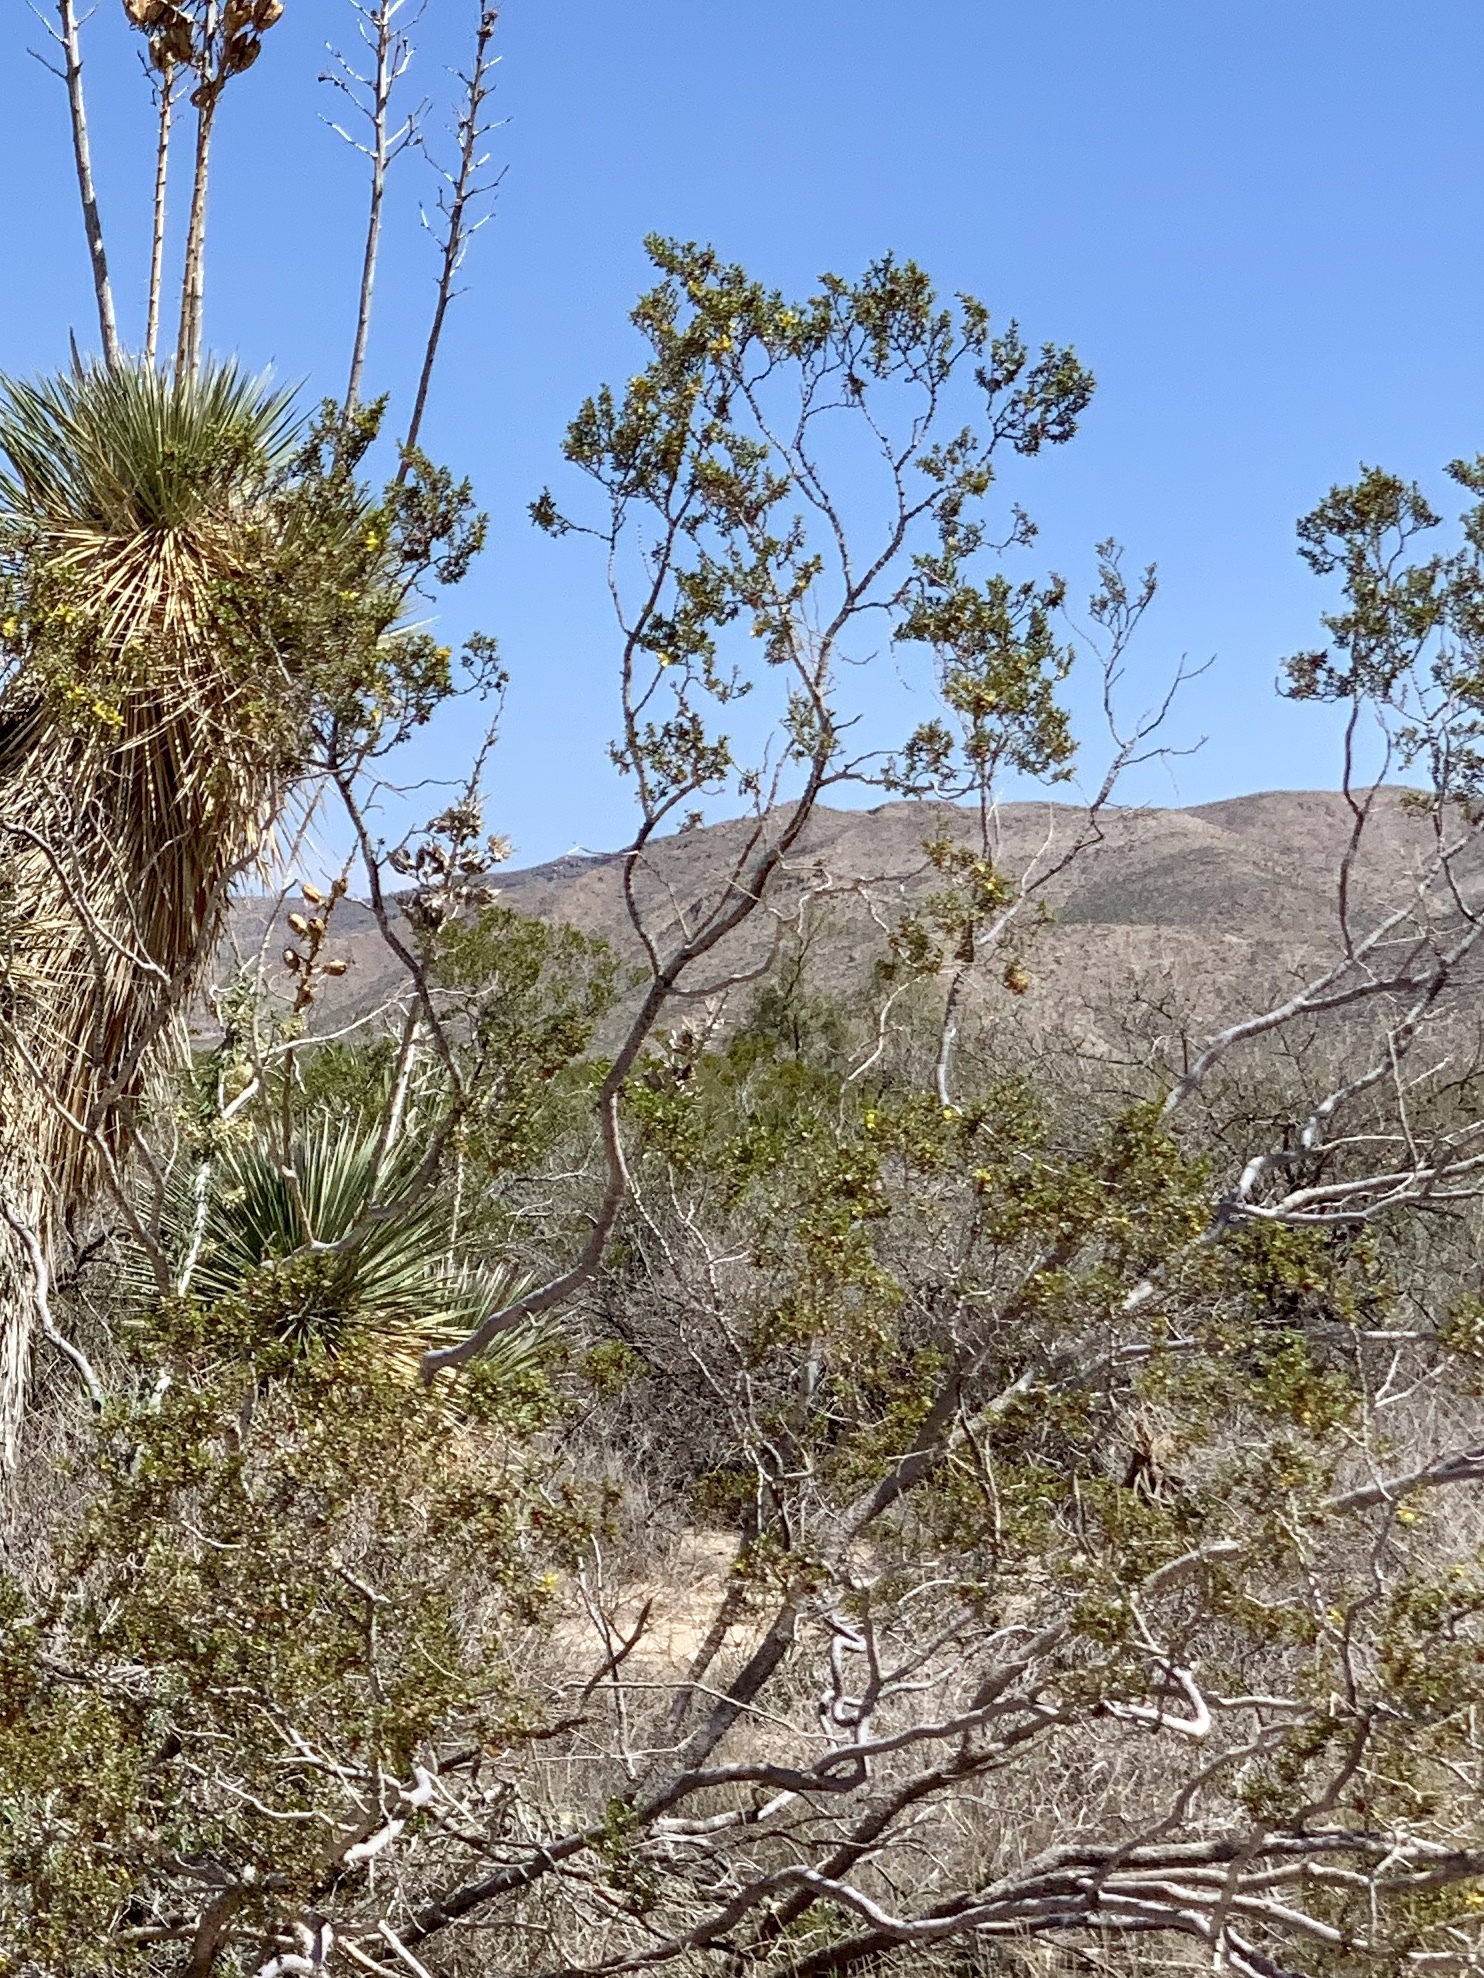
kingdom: Plantae
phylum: Tracheophyta
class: Magnoliopsida
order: Zygophyllales
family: Zygophyllaceae
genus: Larrea
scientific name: Larrea tridentata
